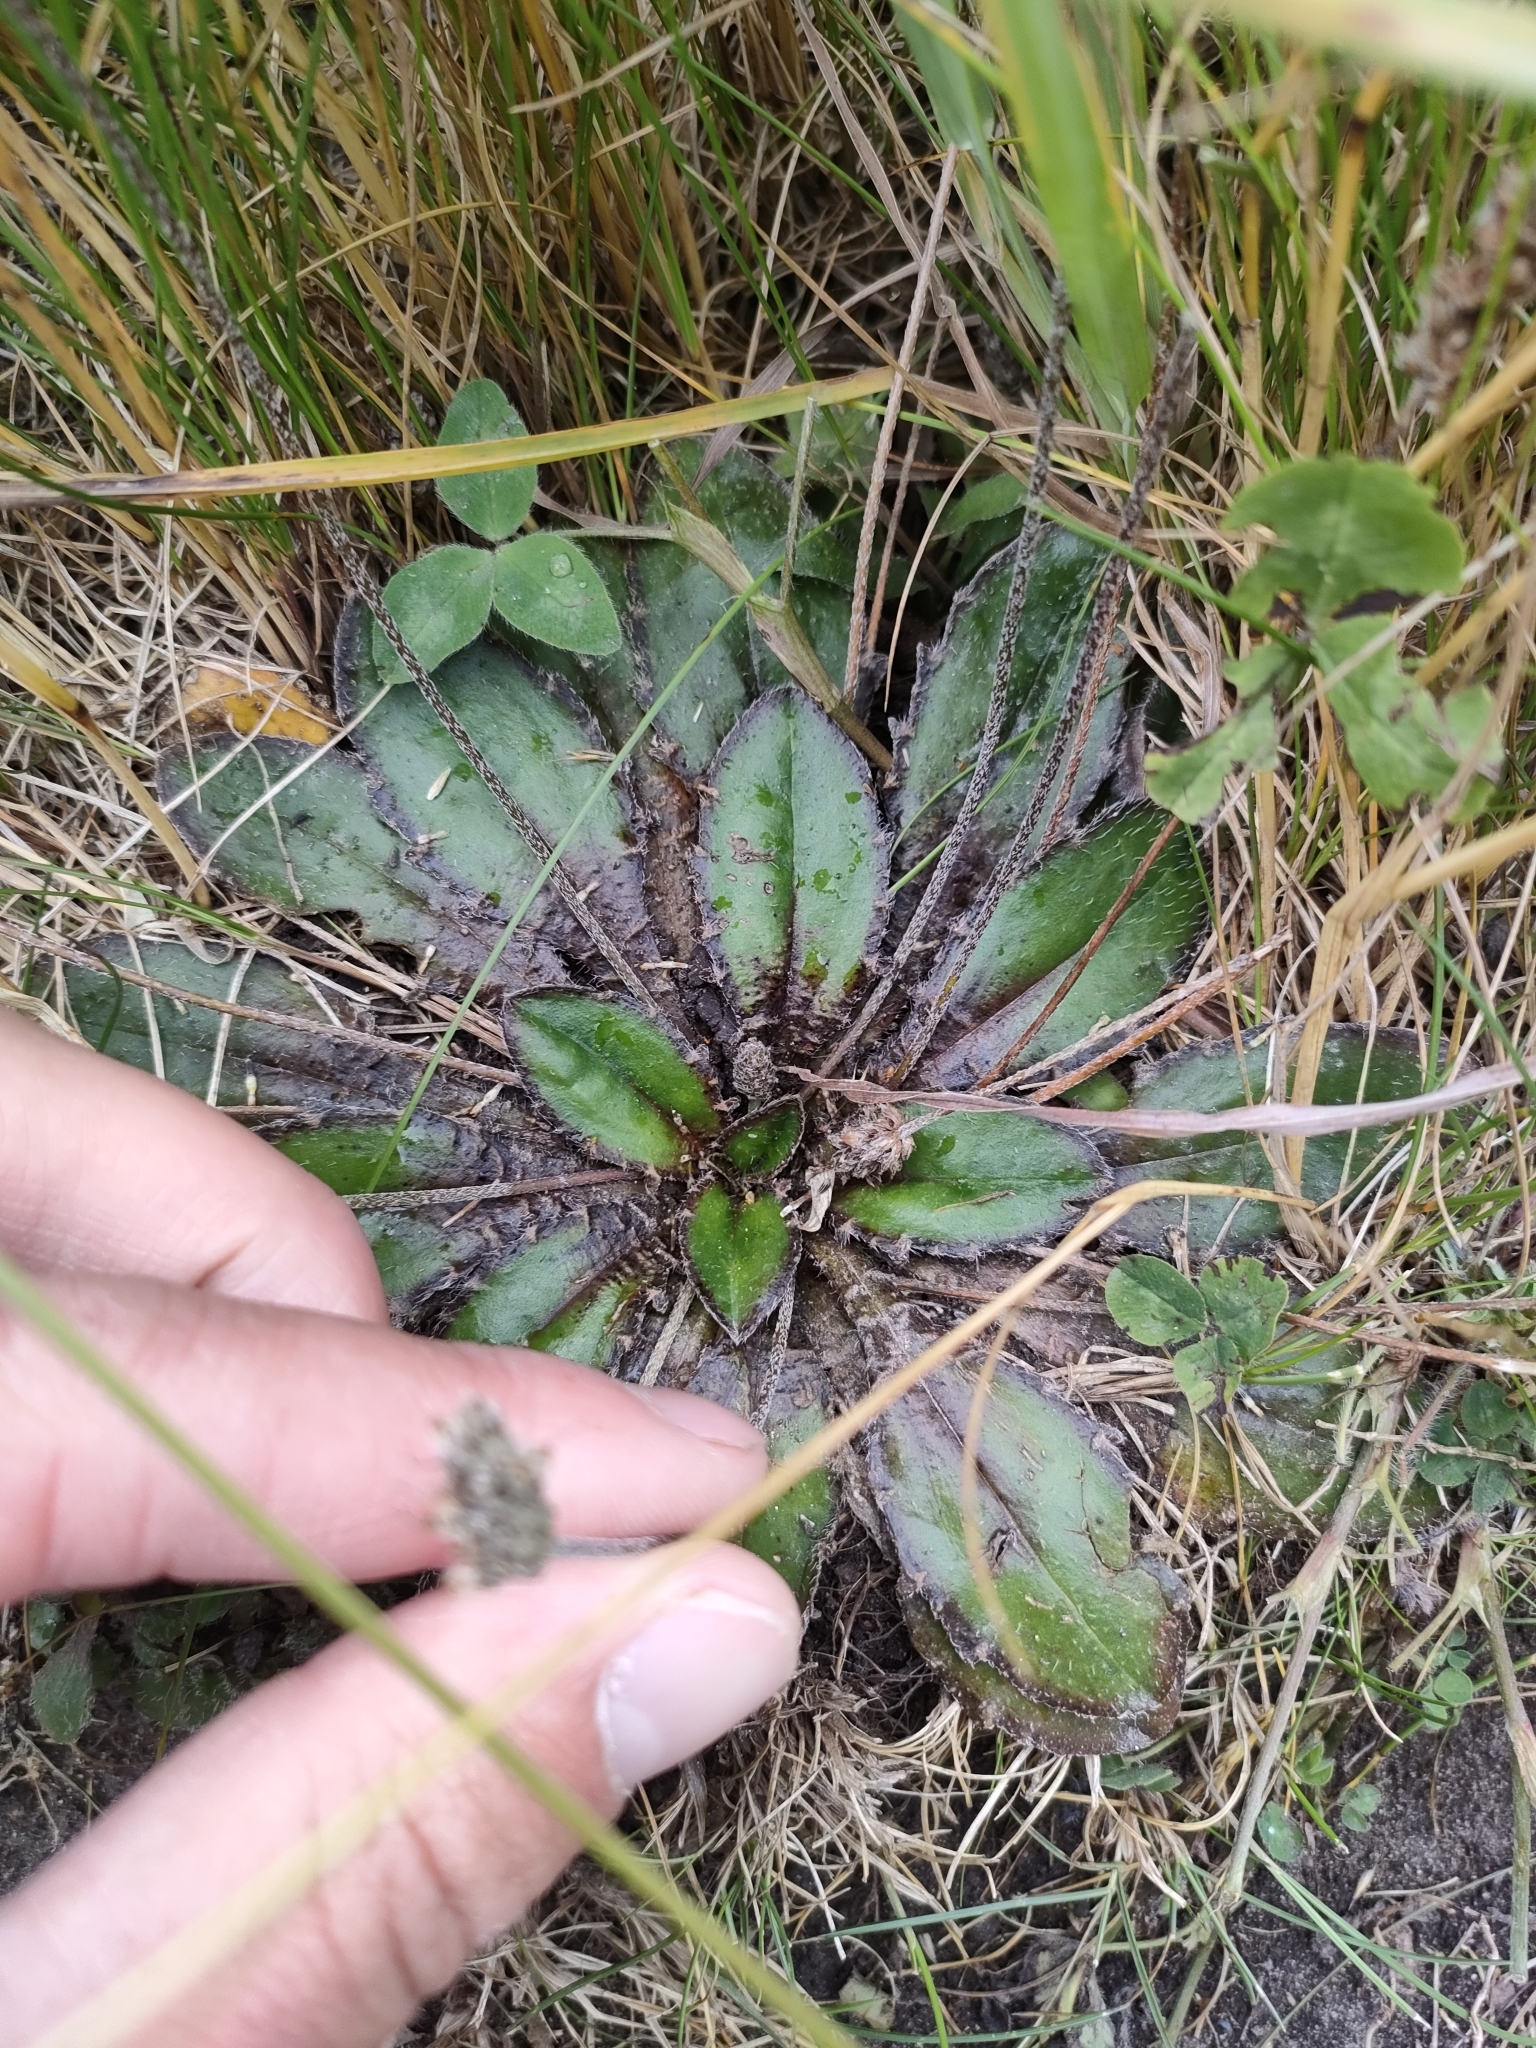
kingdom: Plantae
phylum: Tracheophyta
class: Magnoliopsida
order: Lamiales
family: Plantaginaceae
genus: Plantago
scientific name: Plantago spathulata
